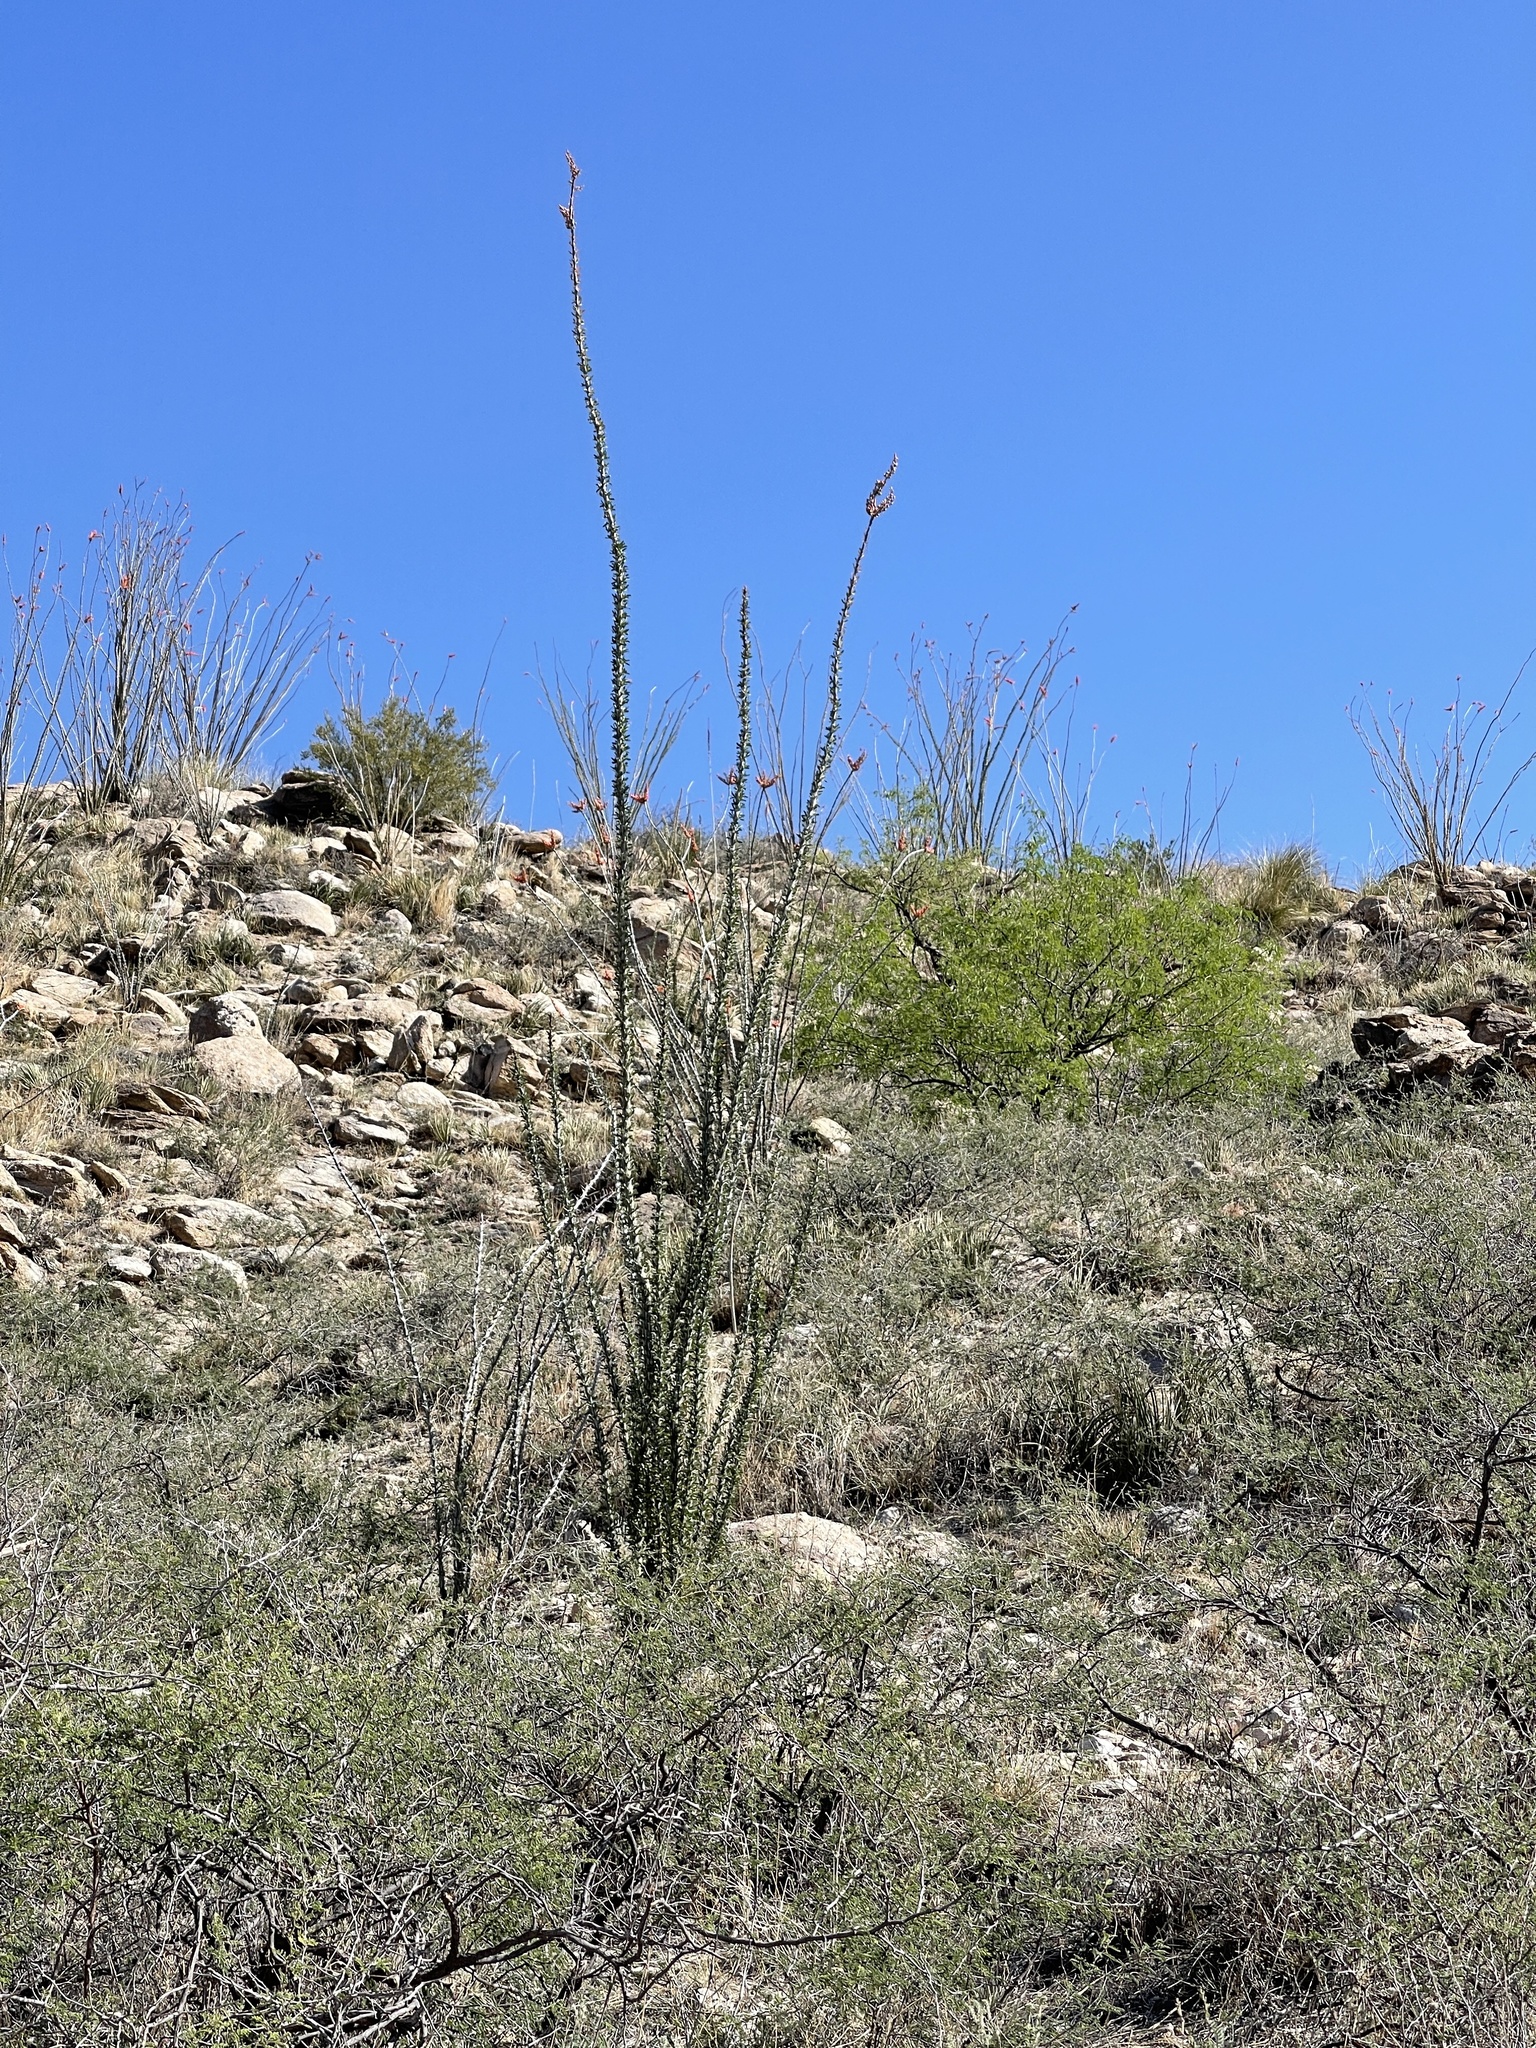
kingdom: Plantae
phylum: Tracheophyta
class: Magnoliopsida
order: Ericales
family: Fouquieriaceae
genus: Fouquieria
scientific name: Fouquieria splendens
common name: Vine-cactus
